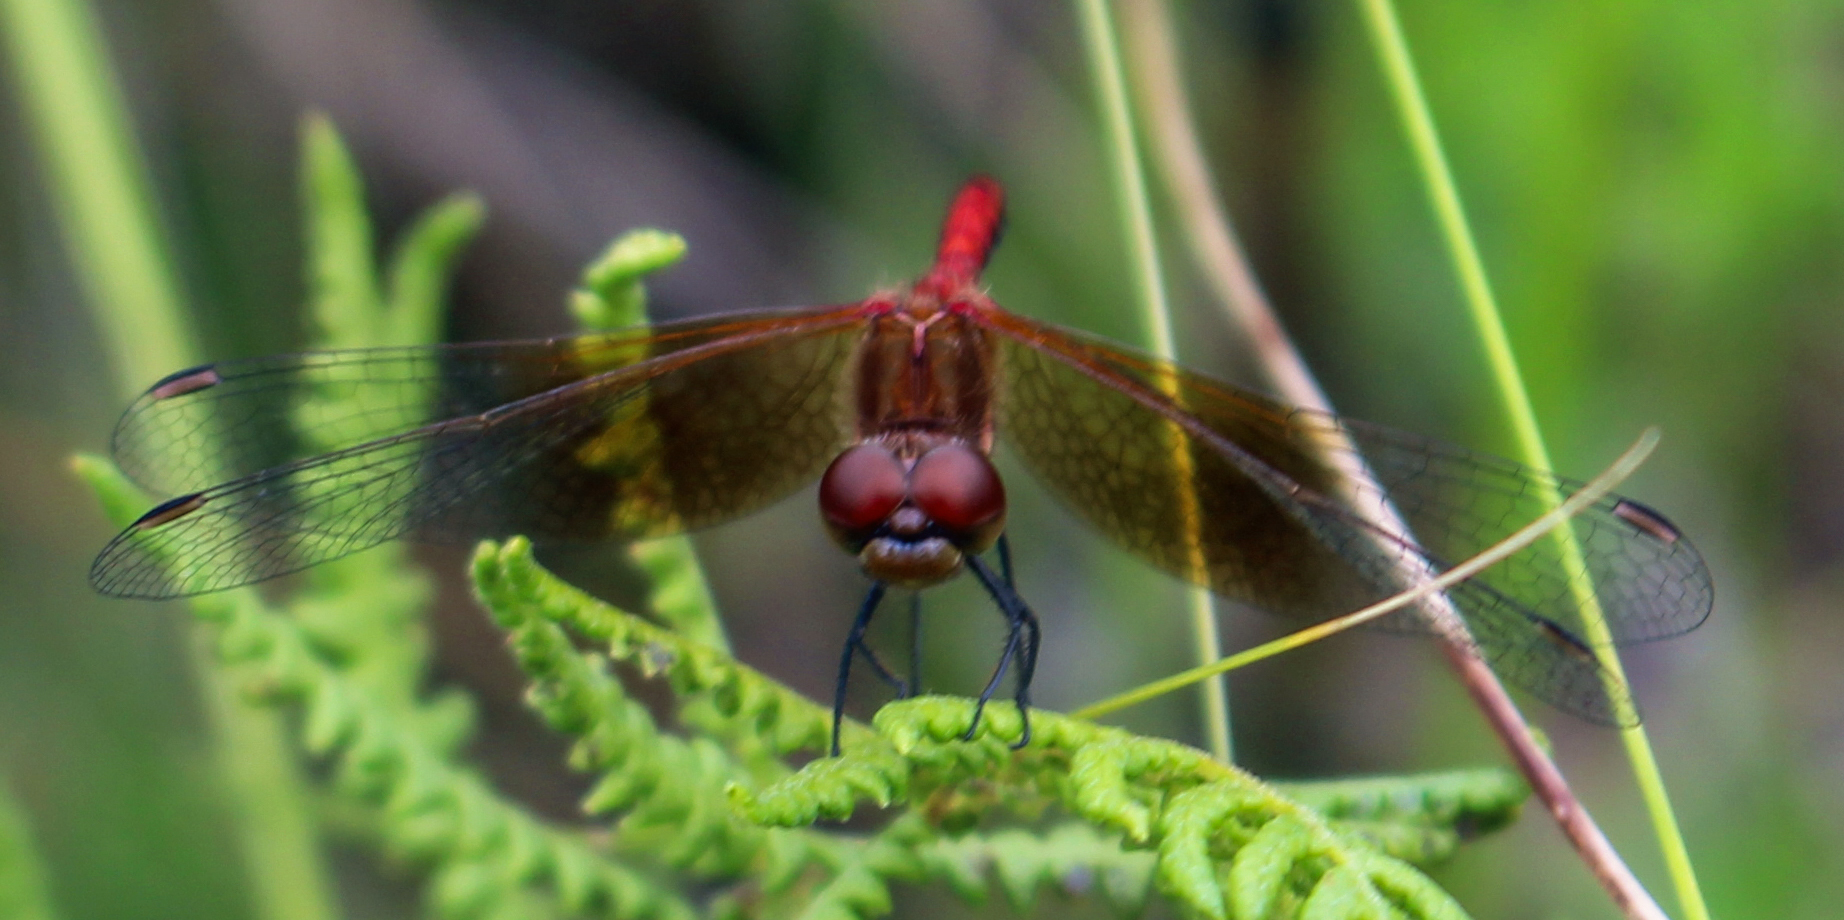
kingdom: Animalia
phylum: Arthropoda
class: Insecta
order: Odonata
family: Libellulidae
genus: Sympetrum
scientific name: Sympetrum semicinctum
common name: Band-winged meadowhawk
